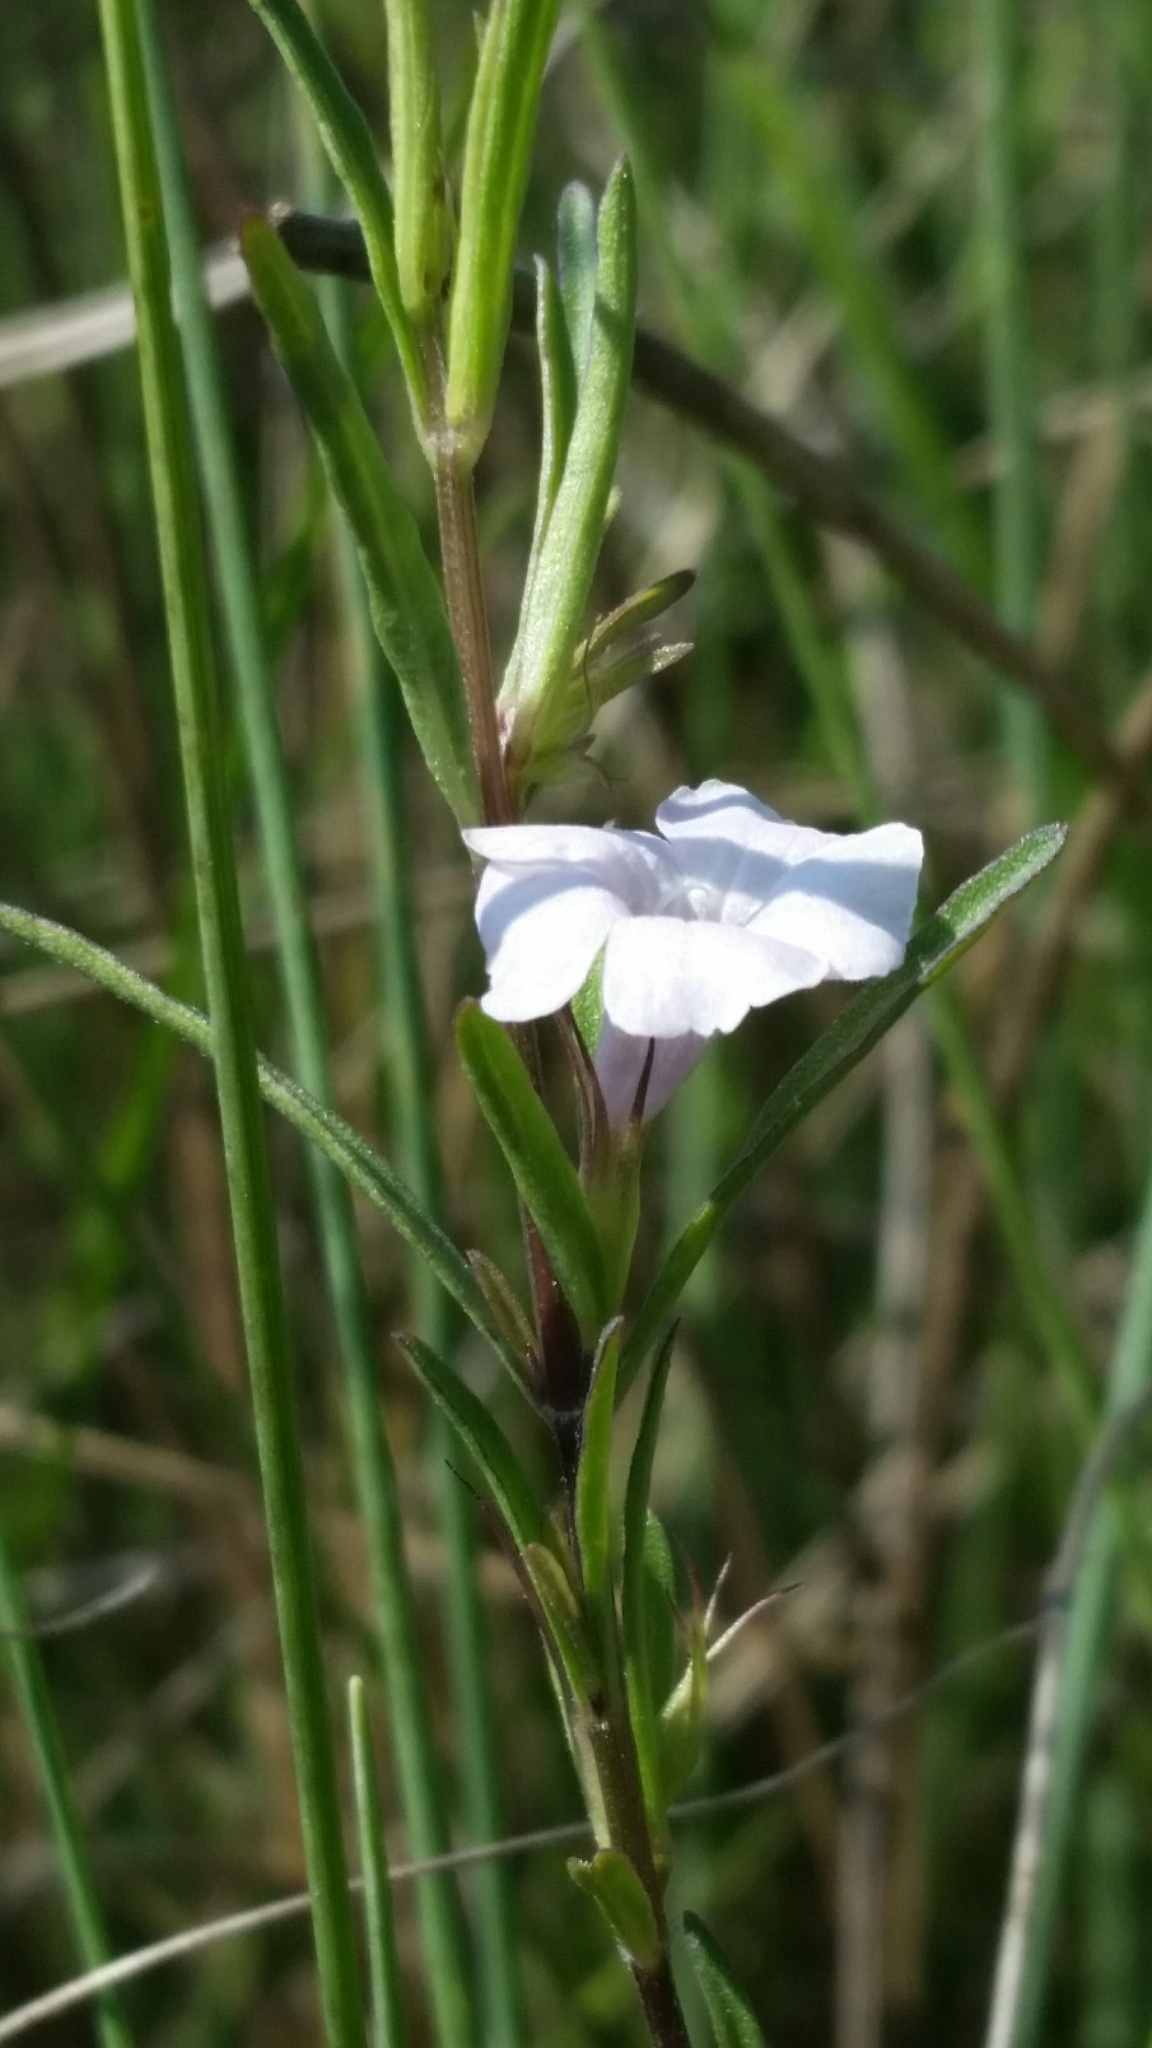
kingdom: Plantae
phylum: Tracheophyta
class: Magnoliopsida
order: Lamiales
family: Acanthaceae
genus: Dyschoriste
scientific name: Dyschoriste angusta
